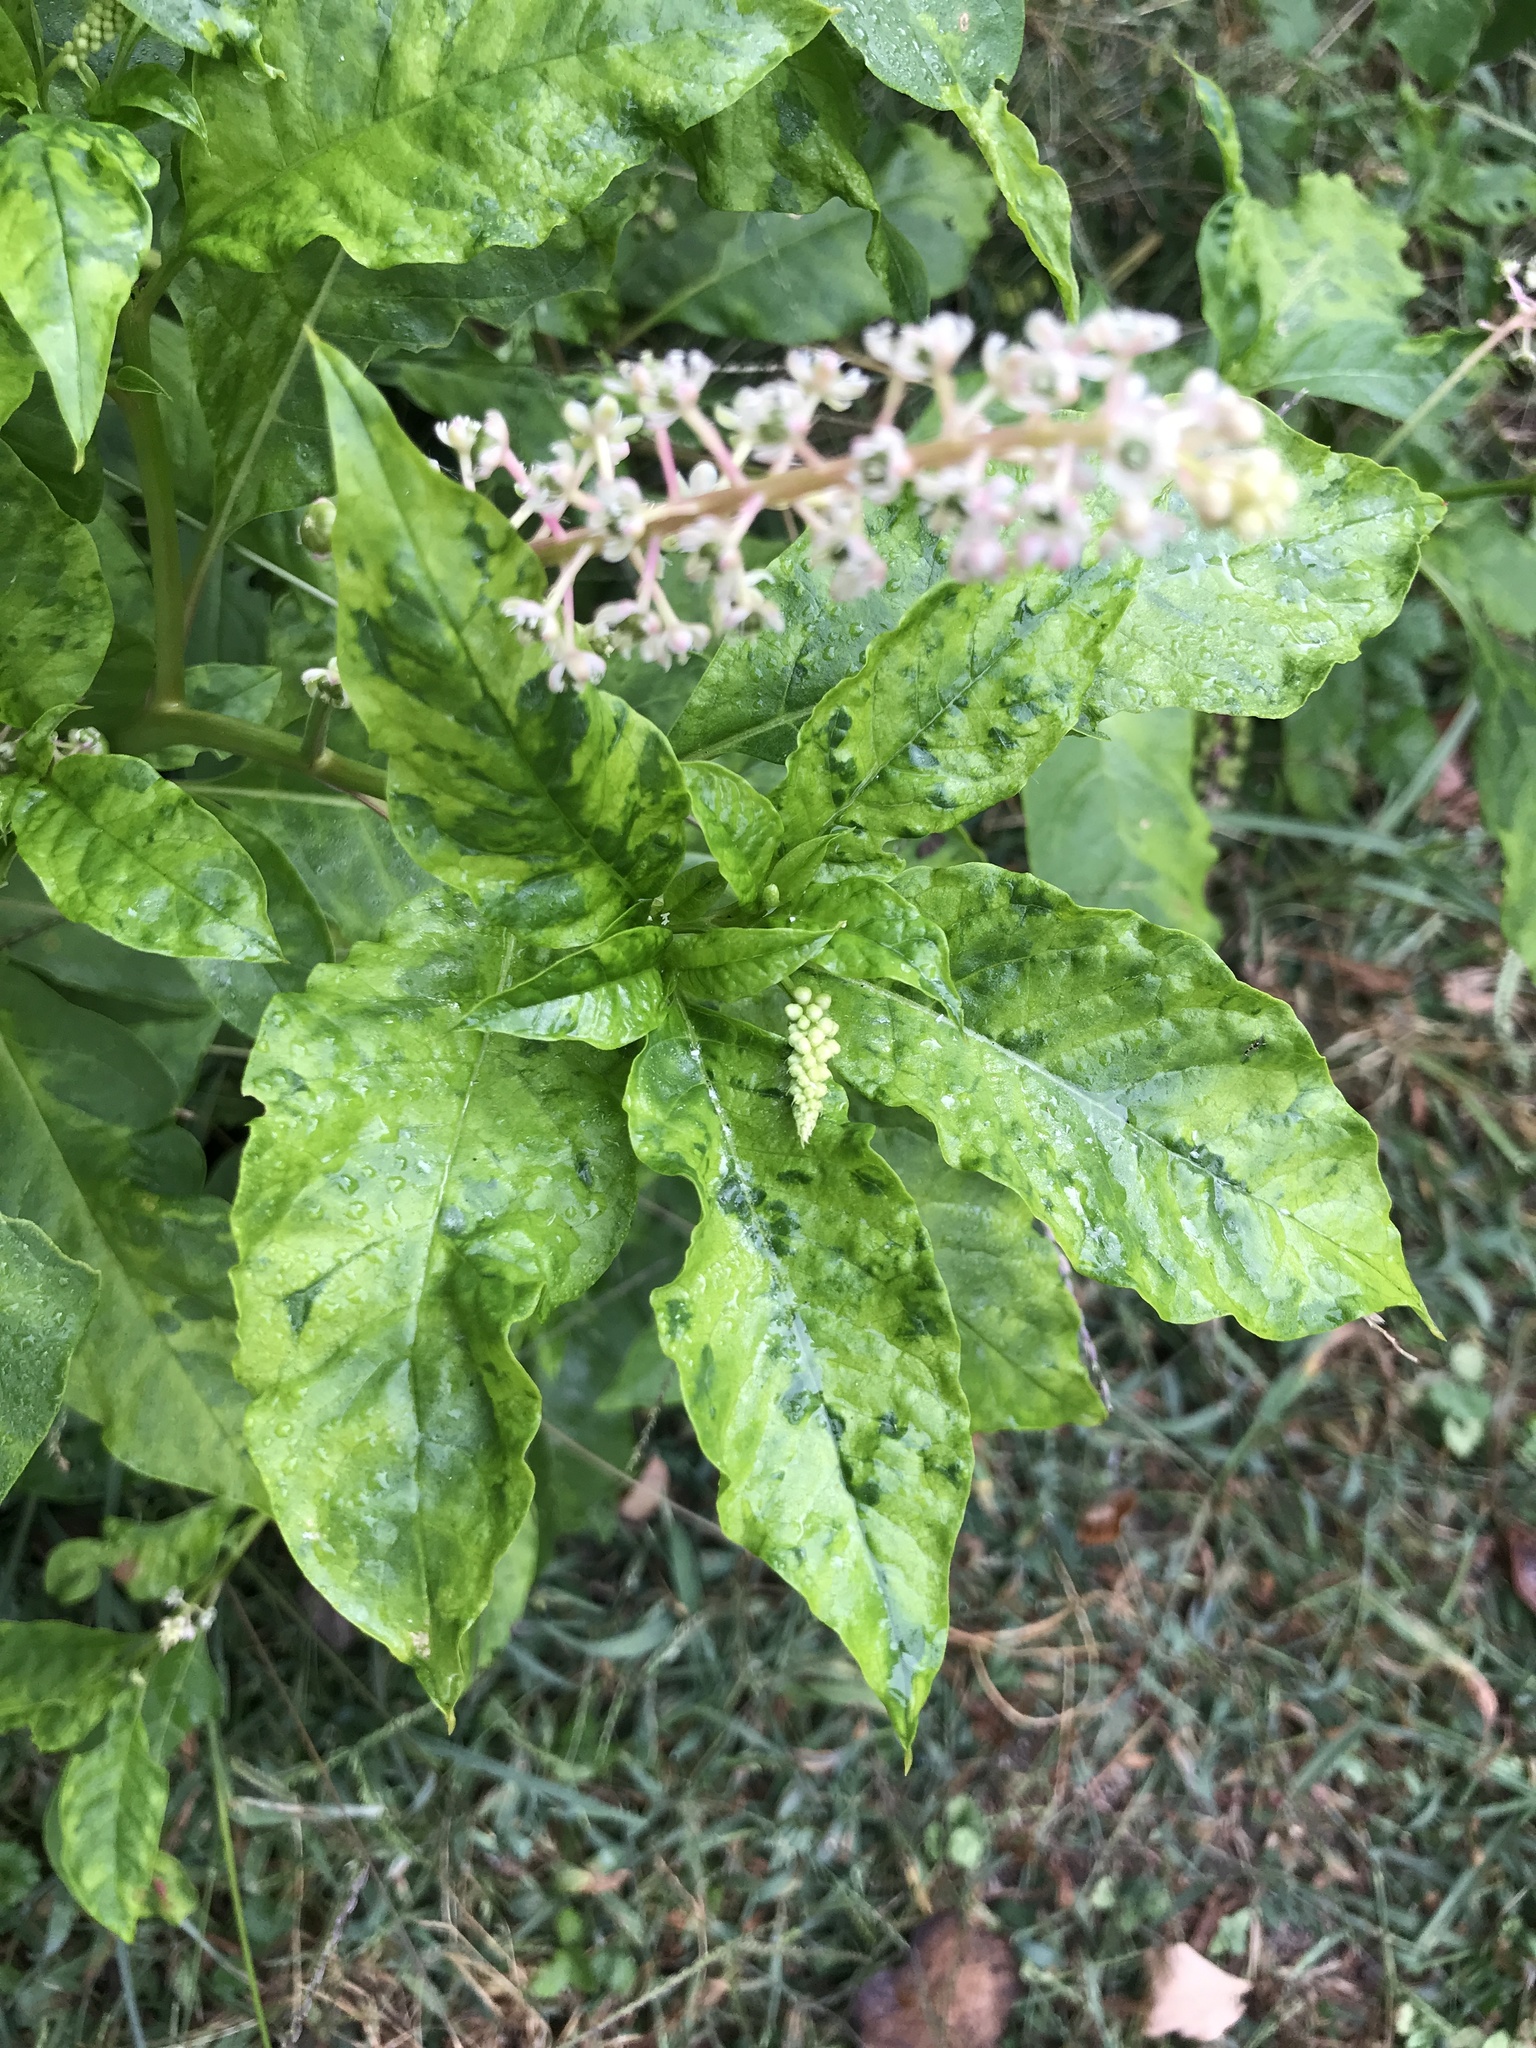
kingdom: Viruses
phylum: Pisuviricota
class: Stelpaviricetes
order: Patatavirales
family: Potyviridae
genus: Potyvirus
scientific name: Potyvirus Pokeweed mosaic virus
